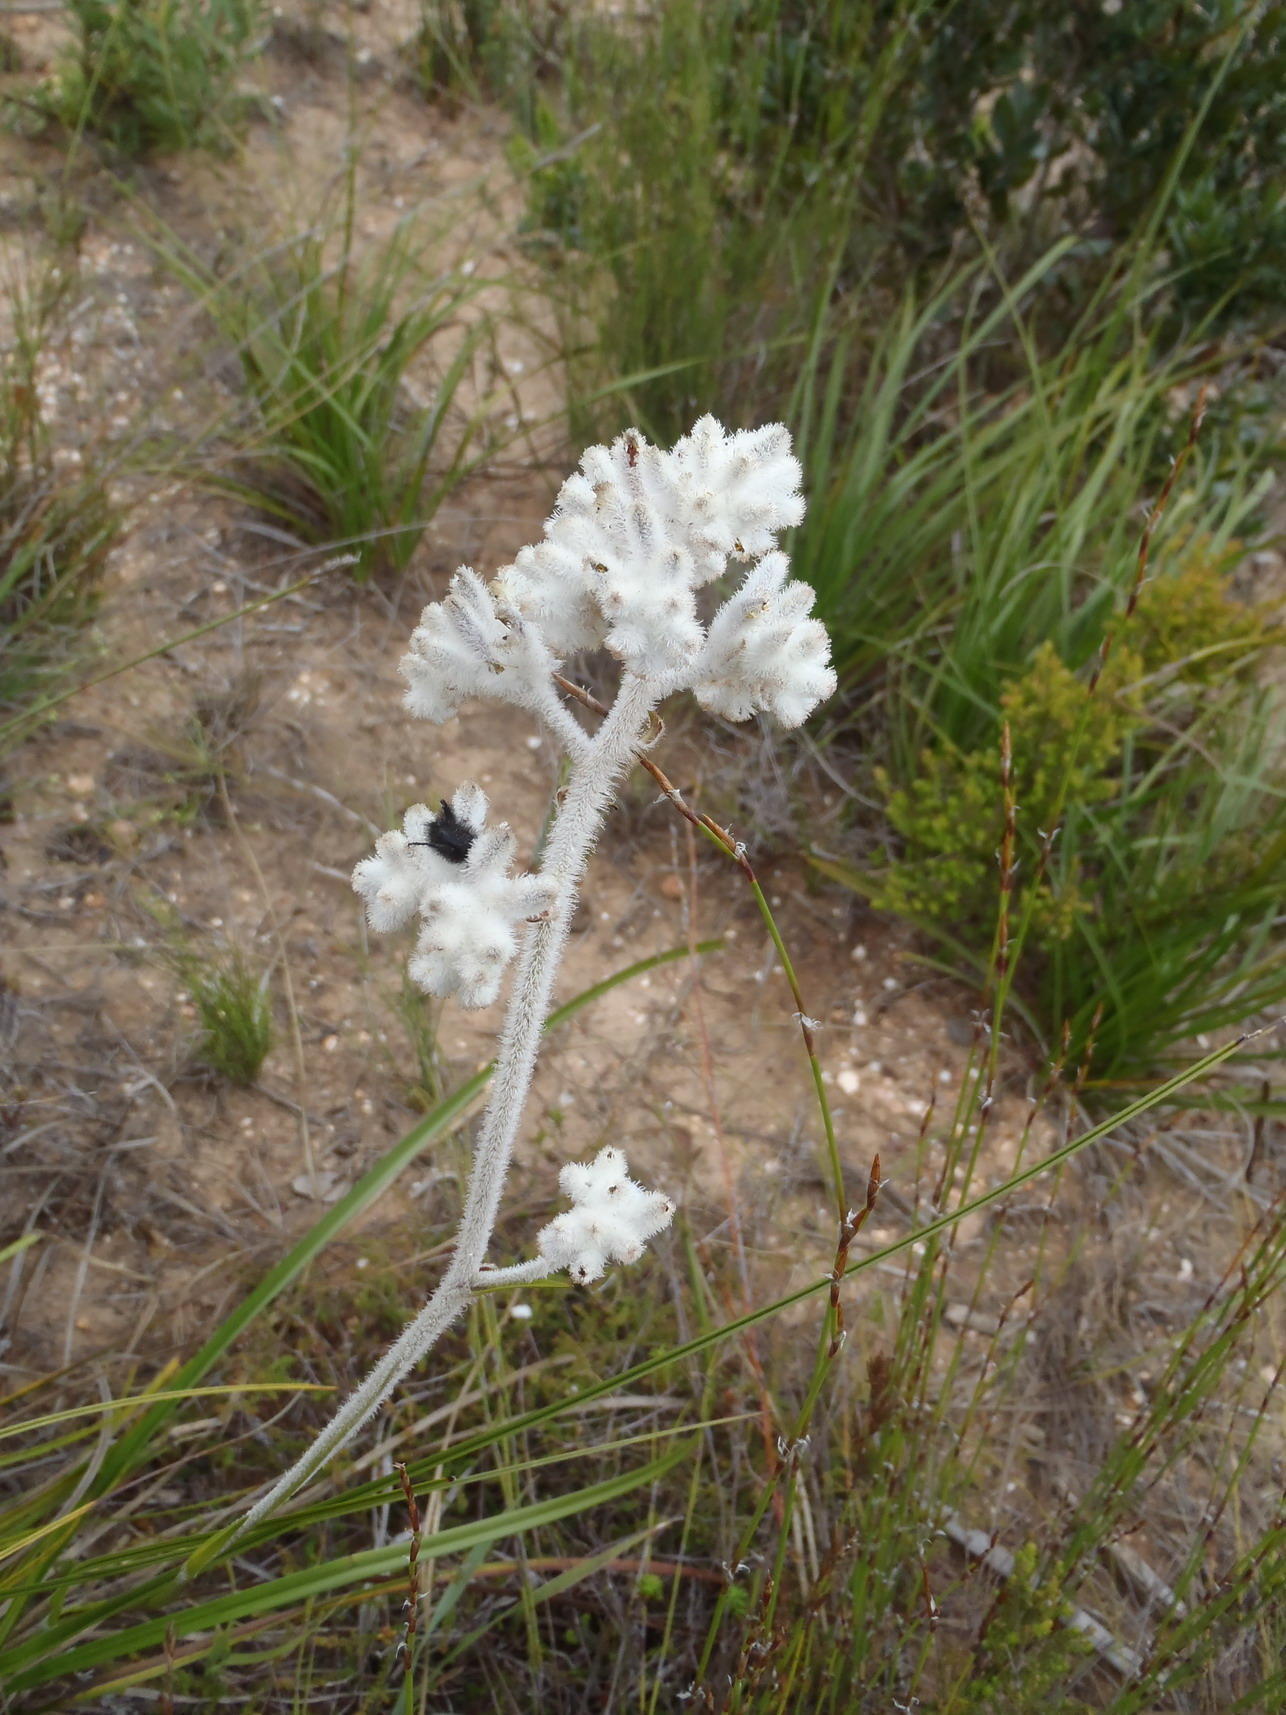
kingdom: Plantae
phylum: Tracheophyta
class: Liliopsida
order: Asparagales
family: Lanariaceae
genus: Lanaria
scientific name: Lanaria lanata
